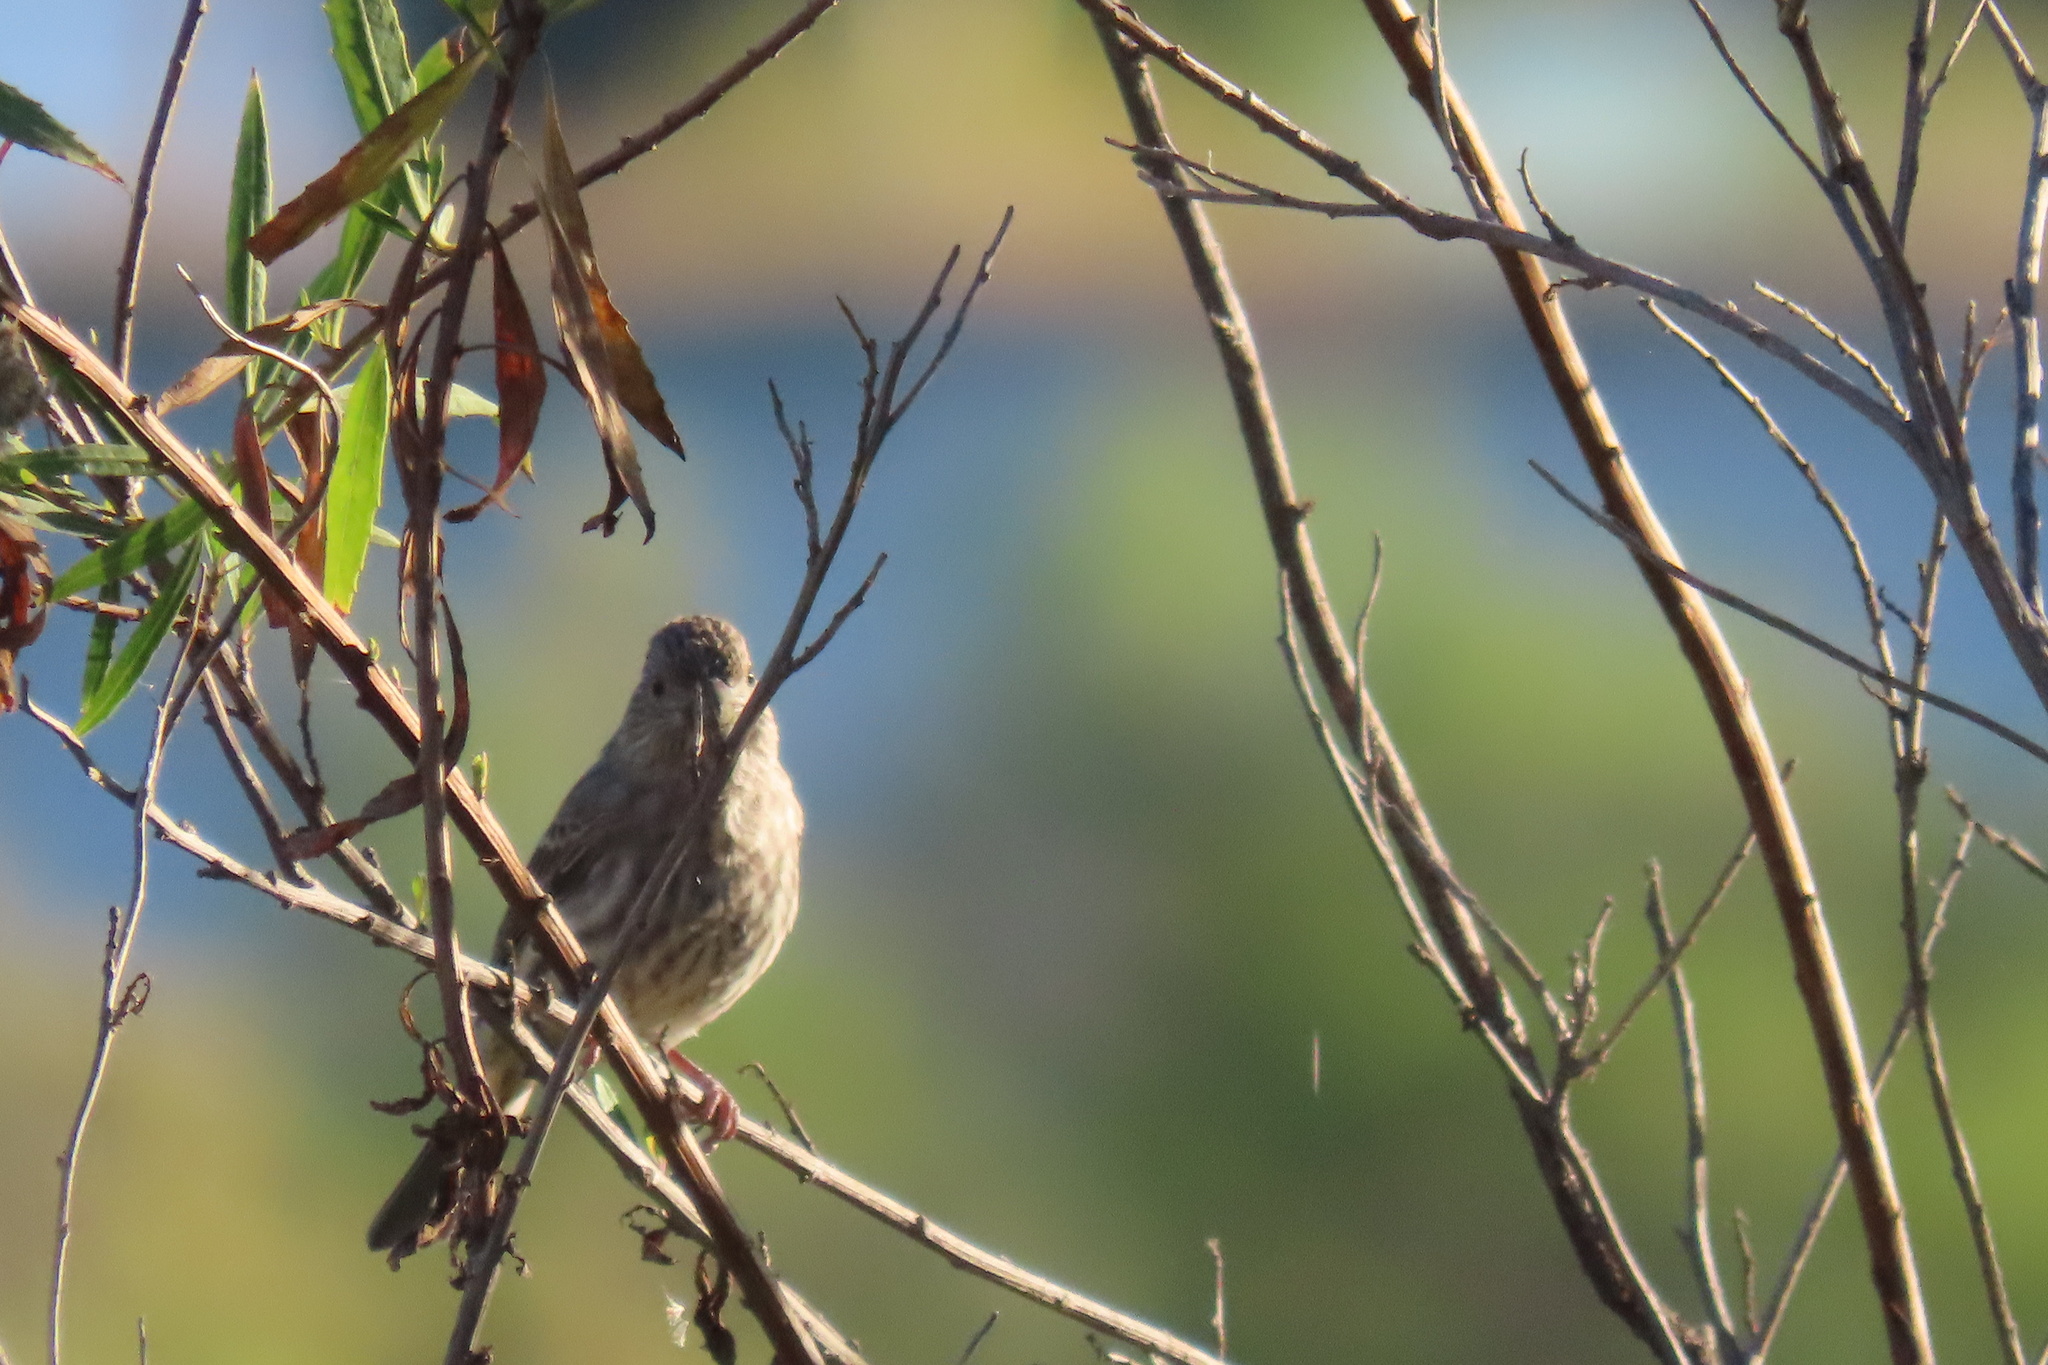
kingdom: Animalia
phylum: Chordata
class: Aves
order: Passeriformes
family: Fringillidae
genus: Haemorhous
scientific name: Haemorhous mexicanus
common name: House finch
